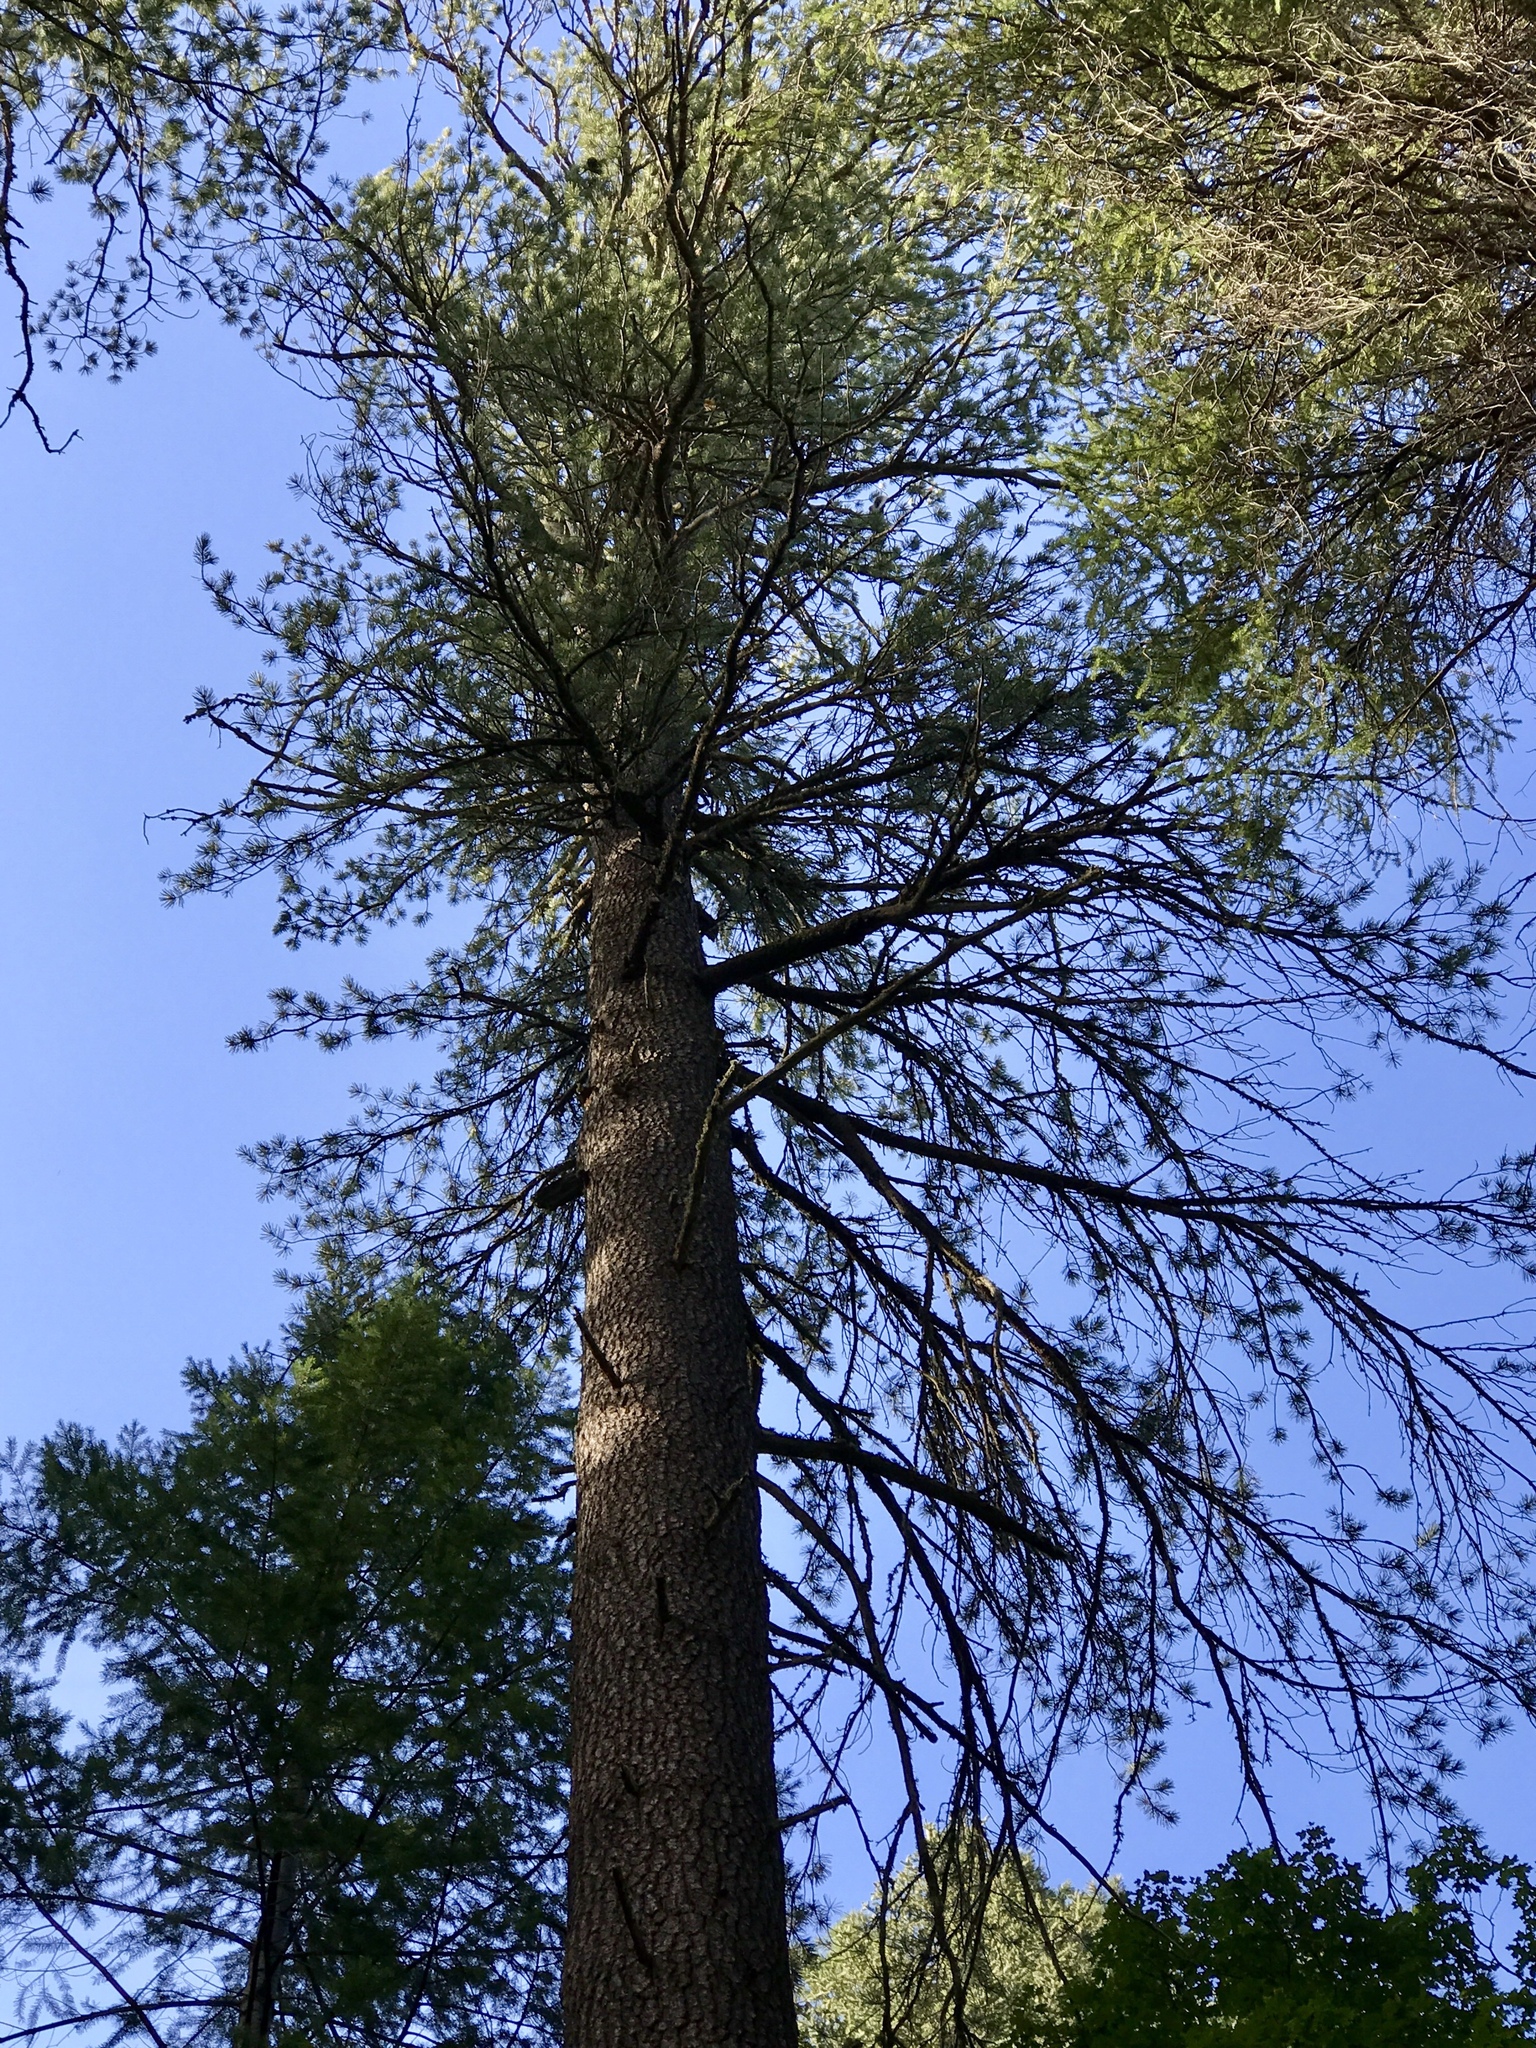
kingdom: Plantae
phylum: Tracheophyta
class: Pinopsida
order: Pinales
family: Pinaceae
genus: Pinus
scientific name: Pinus strobiformis
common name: Southwestern white pine
